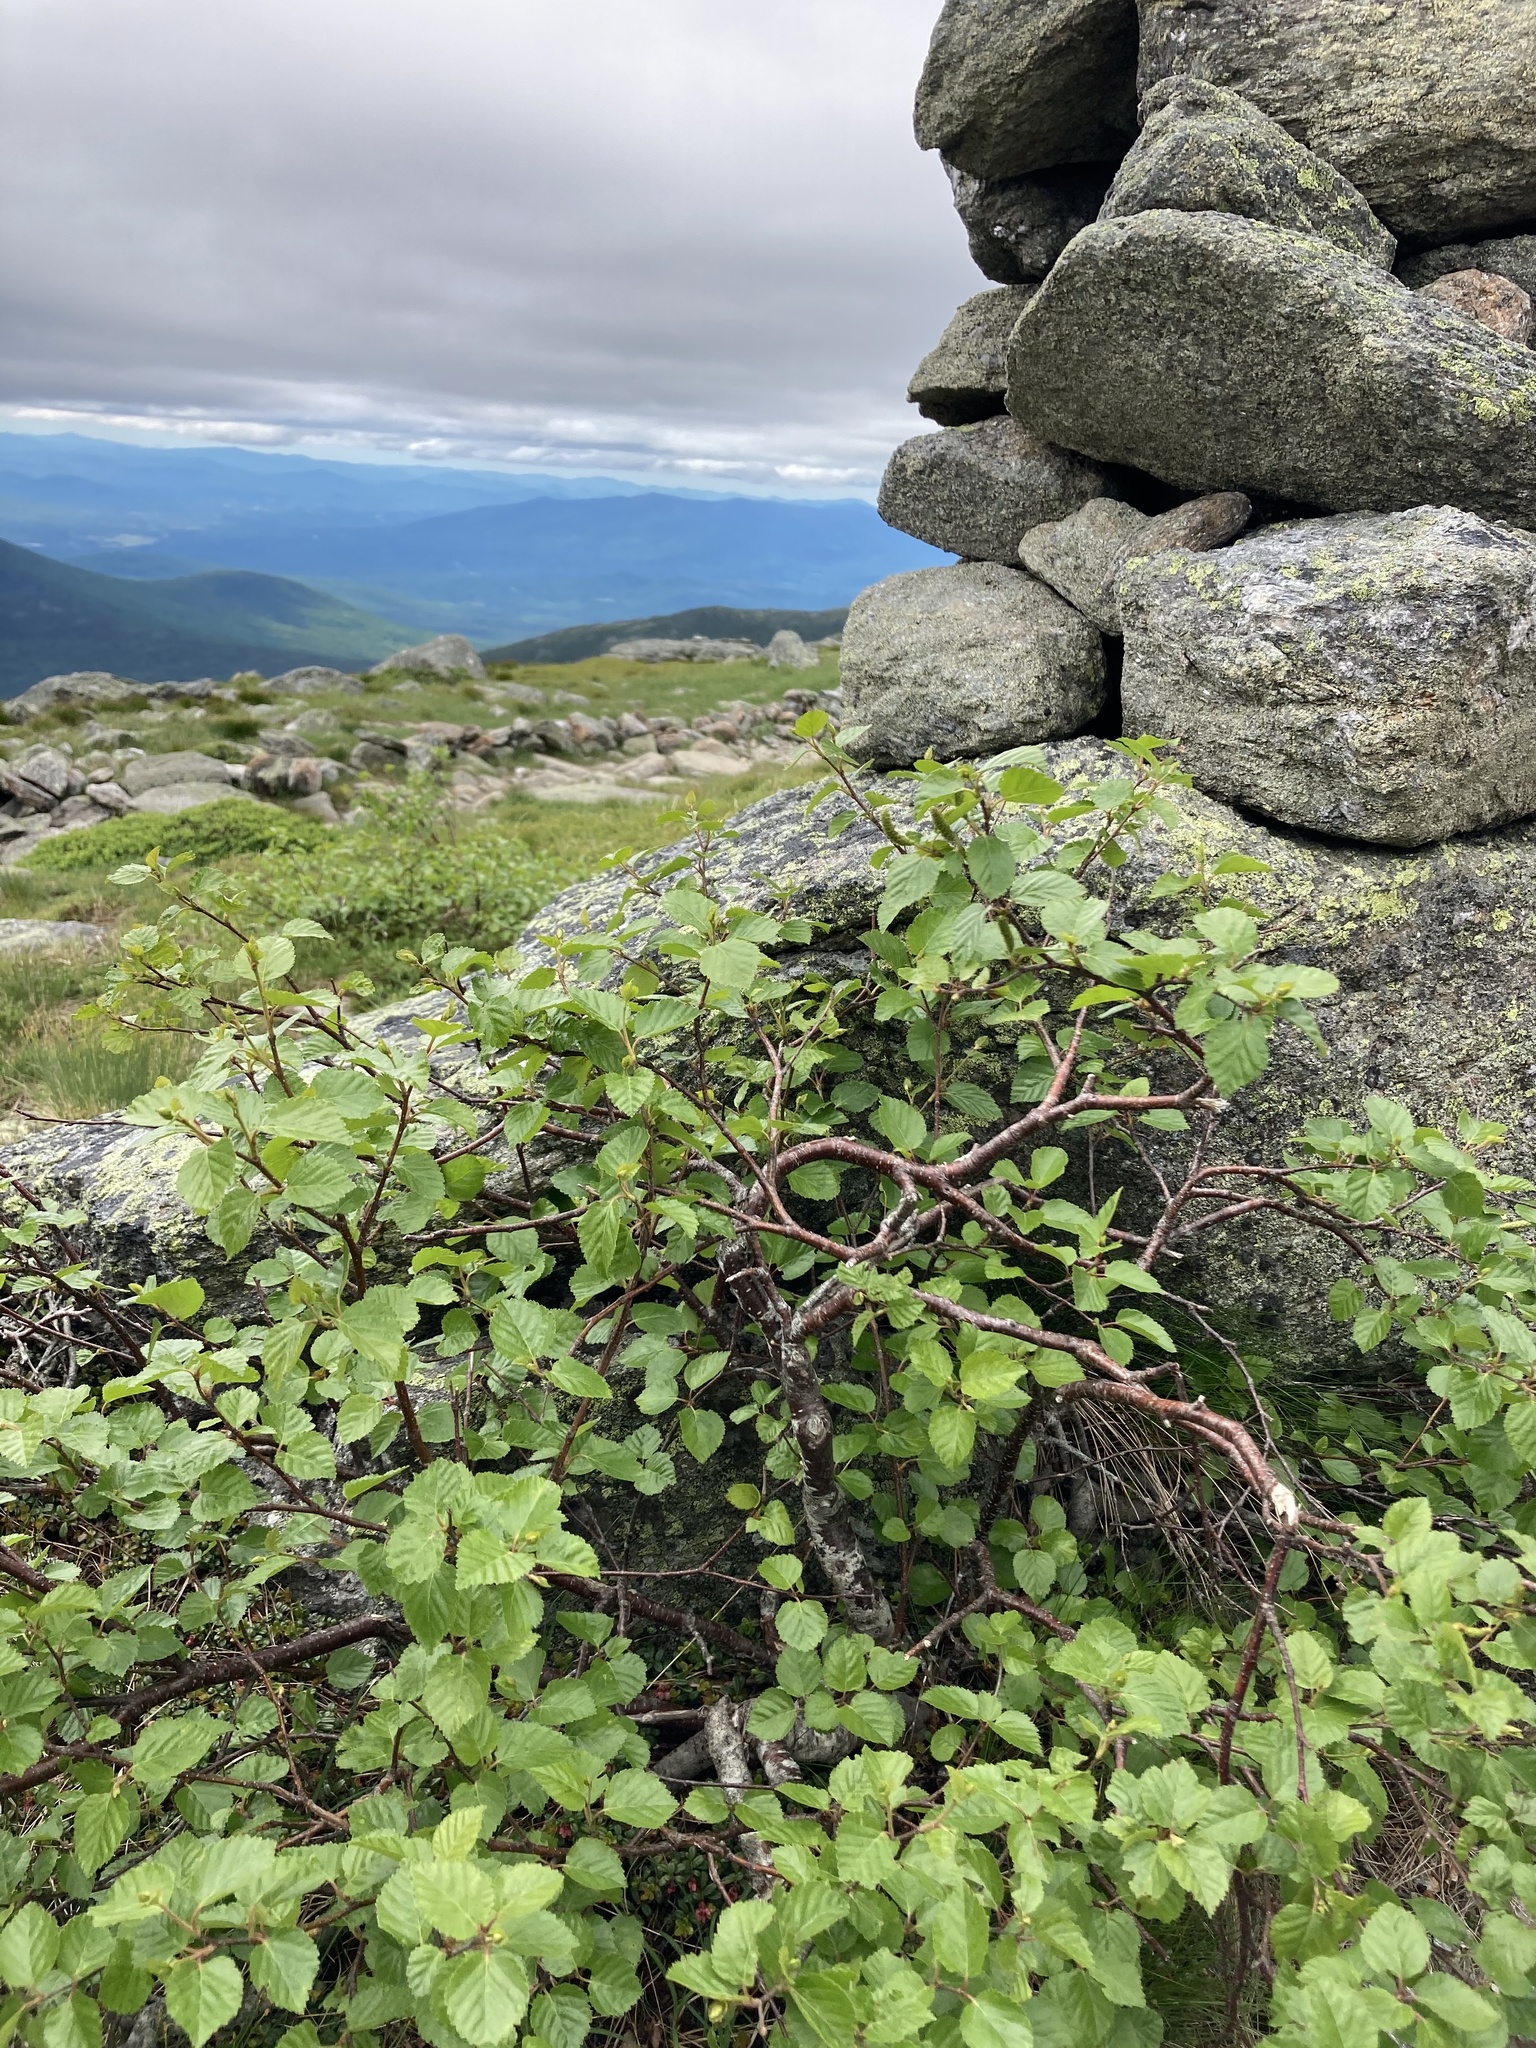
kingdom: Plantae
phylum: Tracheophyta
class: Magnoliopsida
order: Fagales
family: Betulaceae
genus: Betula
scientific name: Betula minor
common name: Dwarf birch
